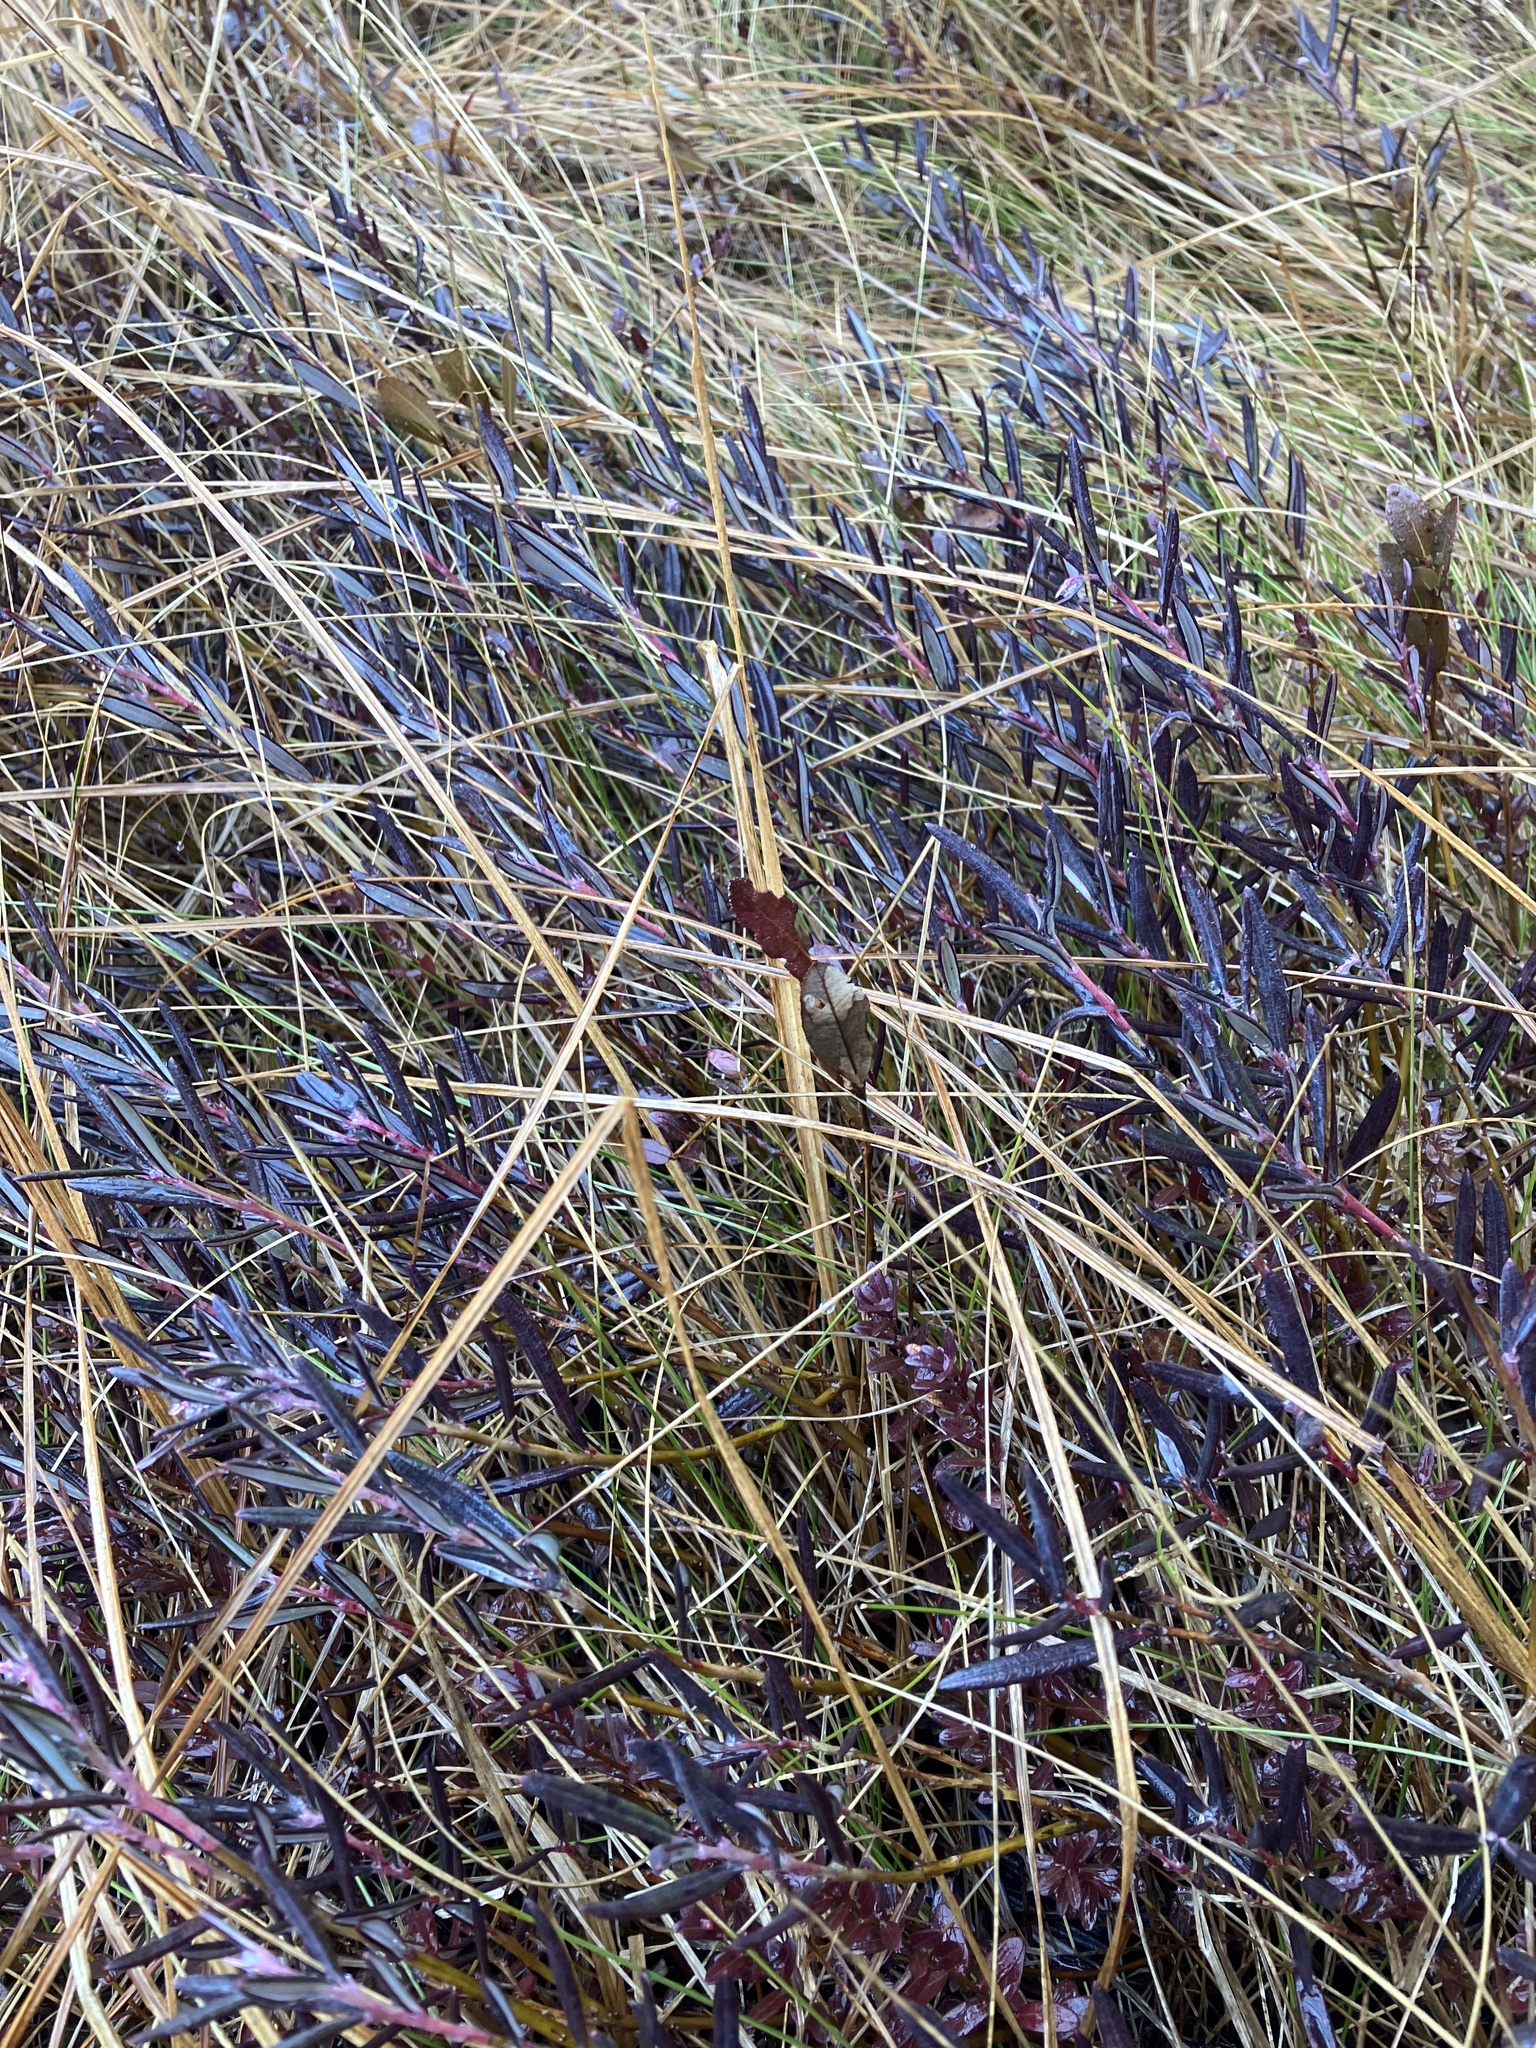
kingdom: Plantae
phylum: Tracheophyta
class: Magnoliopsida
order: Ericales
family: Ericaceae
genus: Andromeda
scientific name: Andromeda polifolia
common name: Bog-rosemary
